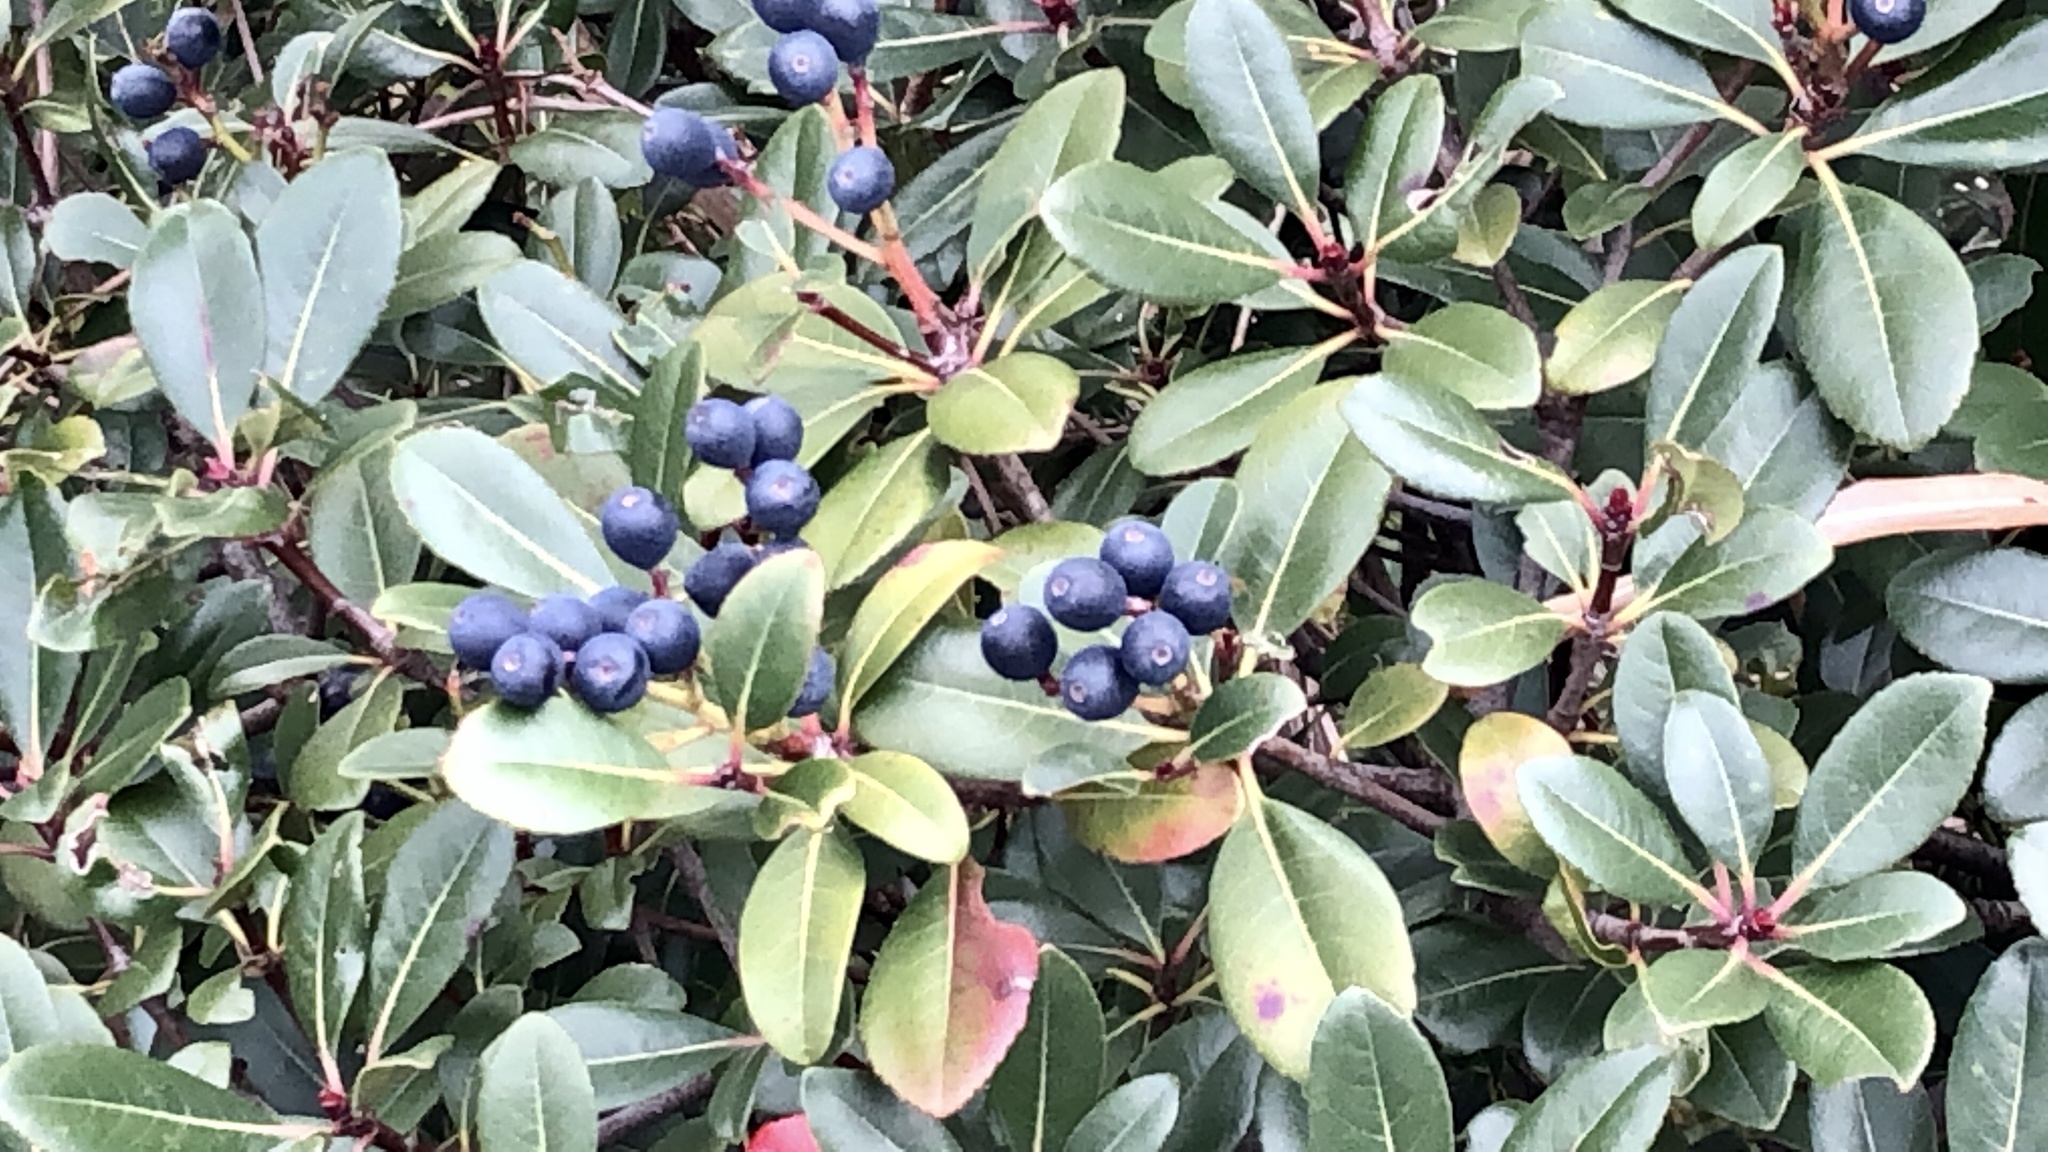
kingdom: Plantae
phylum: Tracheophyta
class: Magnoliopsida
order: Rosales
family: Rosaceae
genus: Rhaphiolepis
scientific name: Rhaphiolepis indica
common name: India-hawthorn
